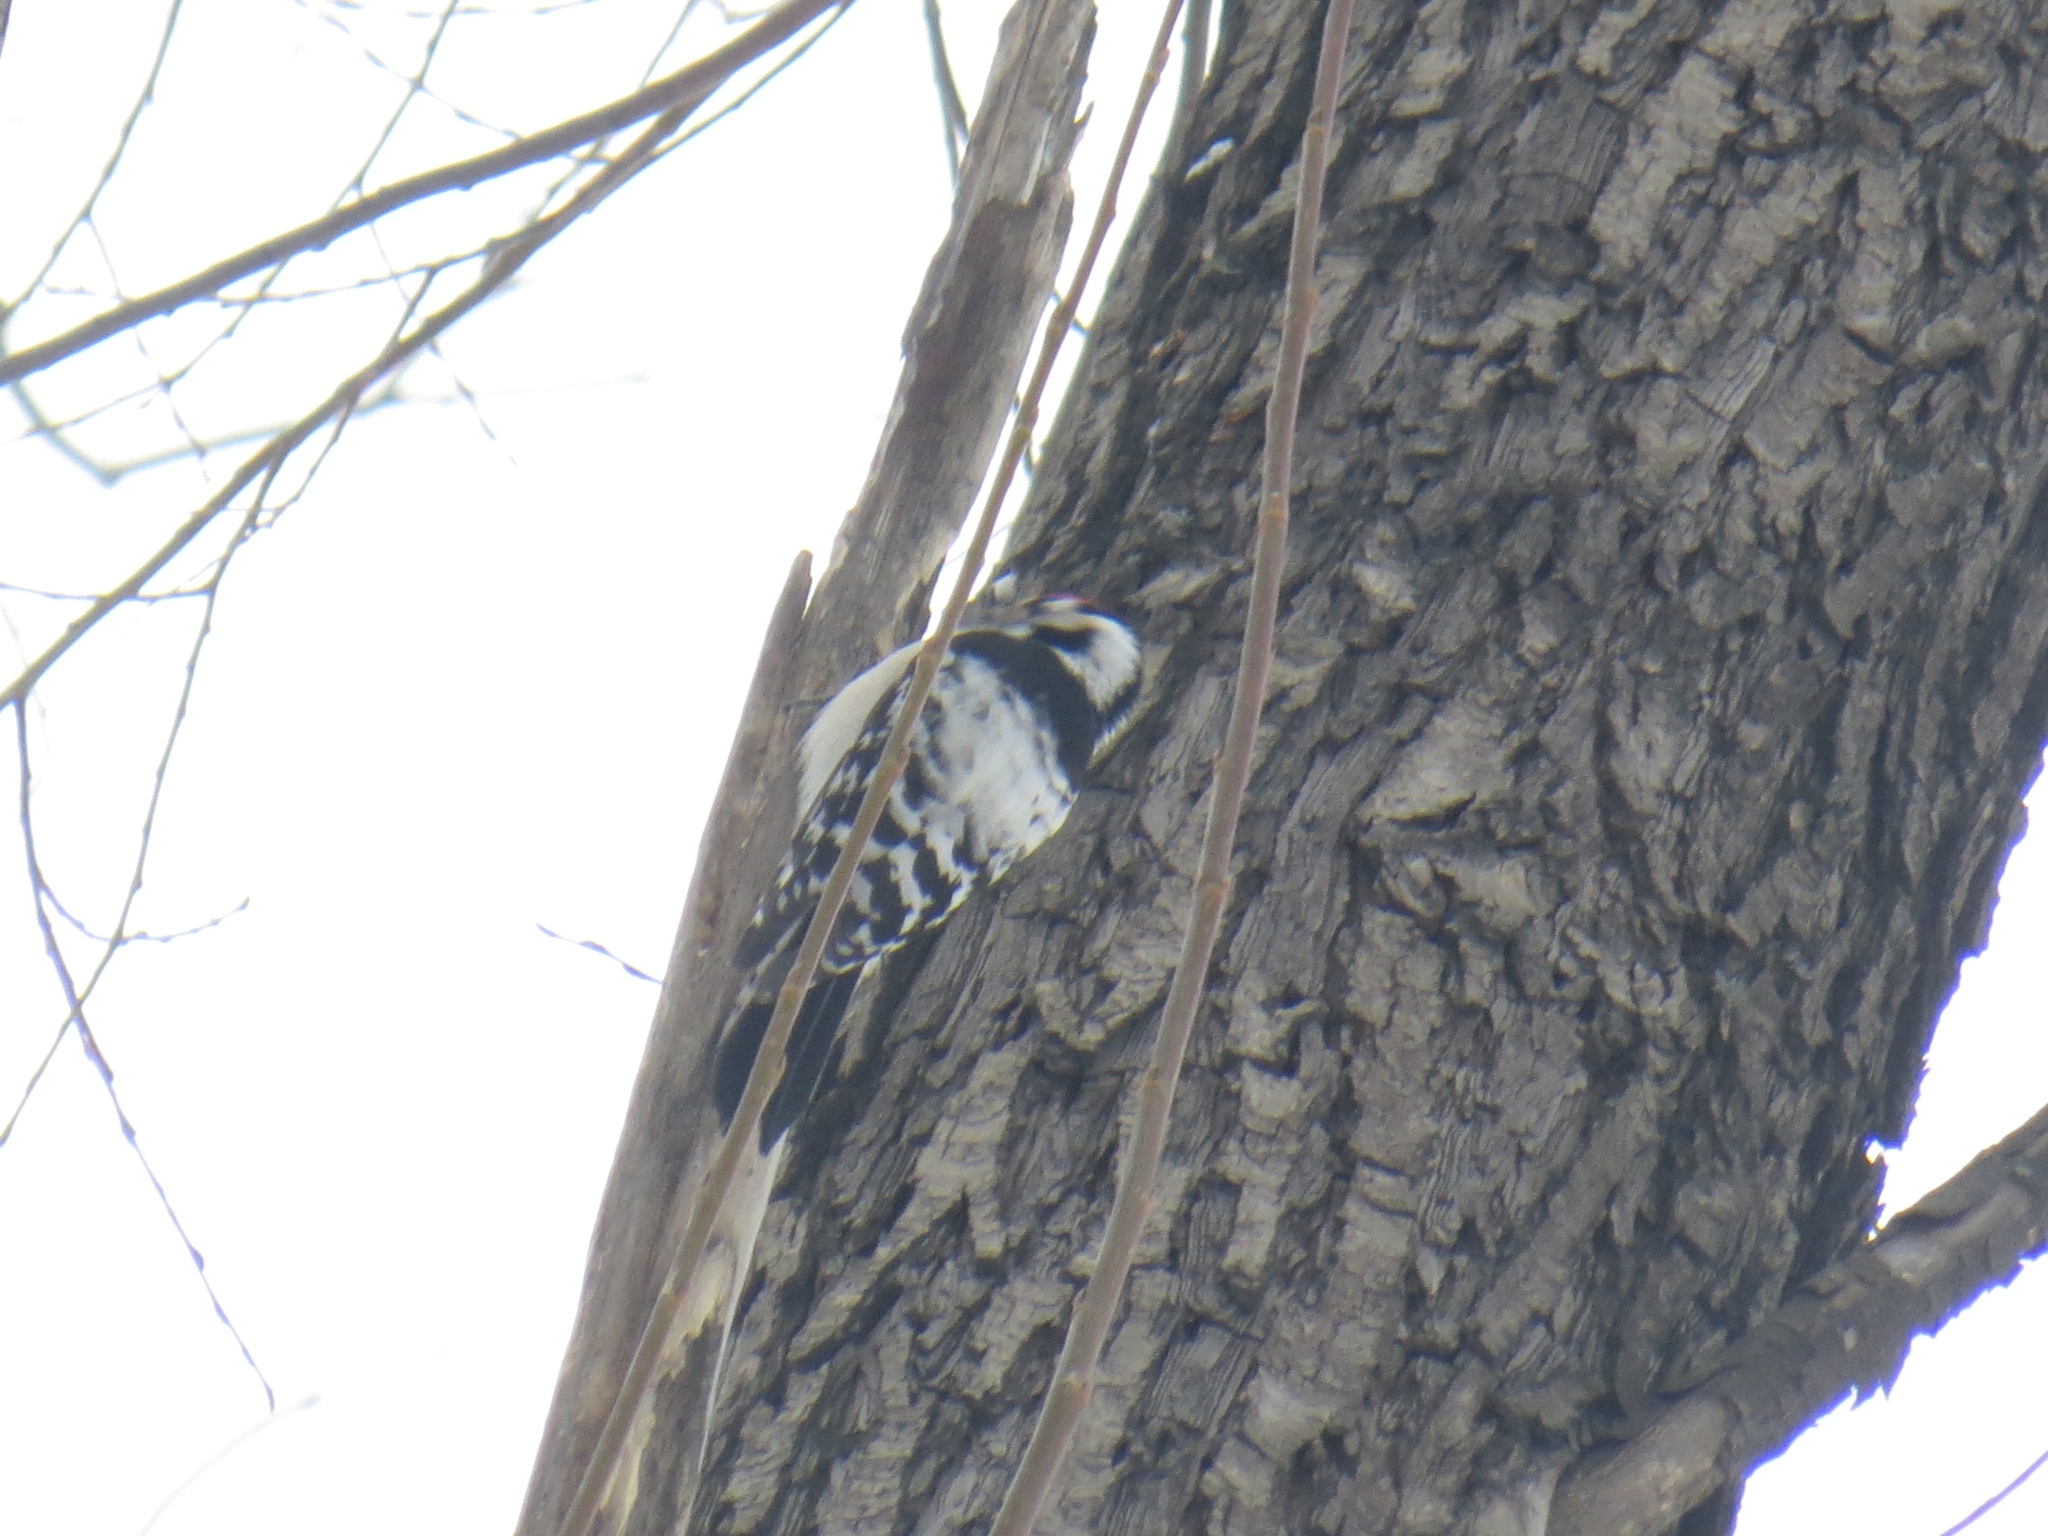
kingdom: Animalia
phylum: Chordata
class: Aves
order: Piciformes
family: Picidae
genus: Dryobates
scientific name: Dryobates minor
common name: Lesser spotted woodpecker
